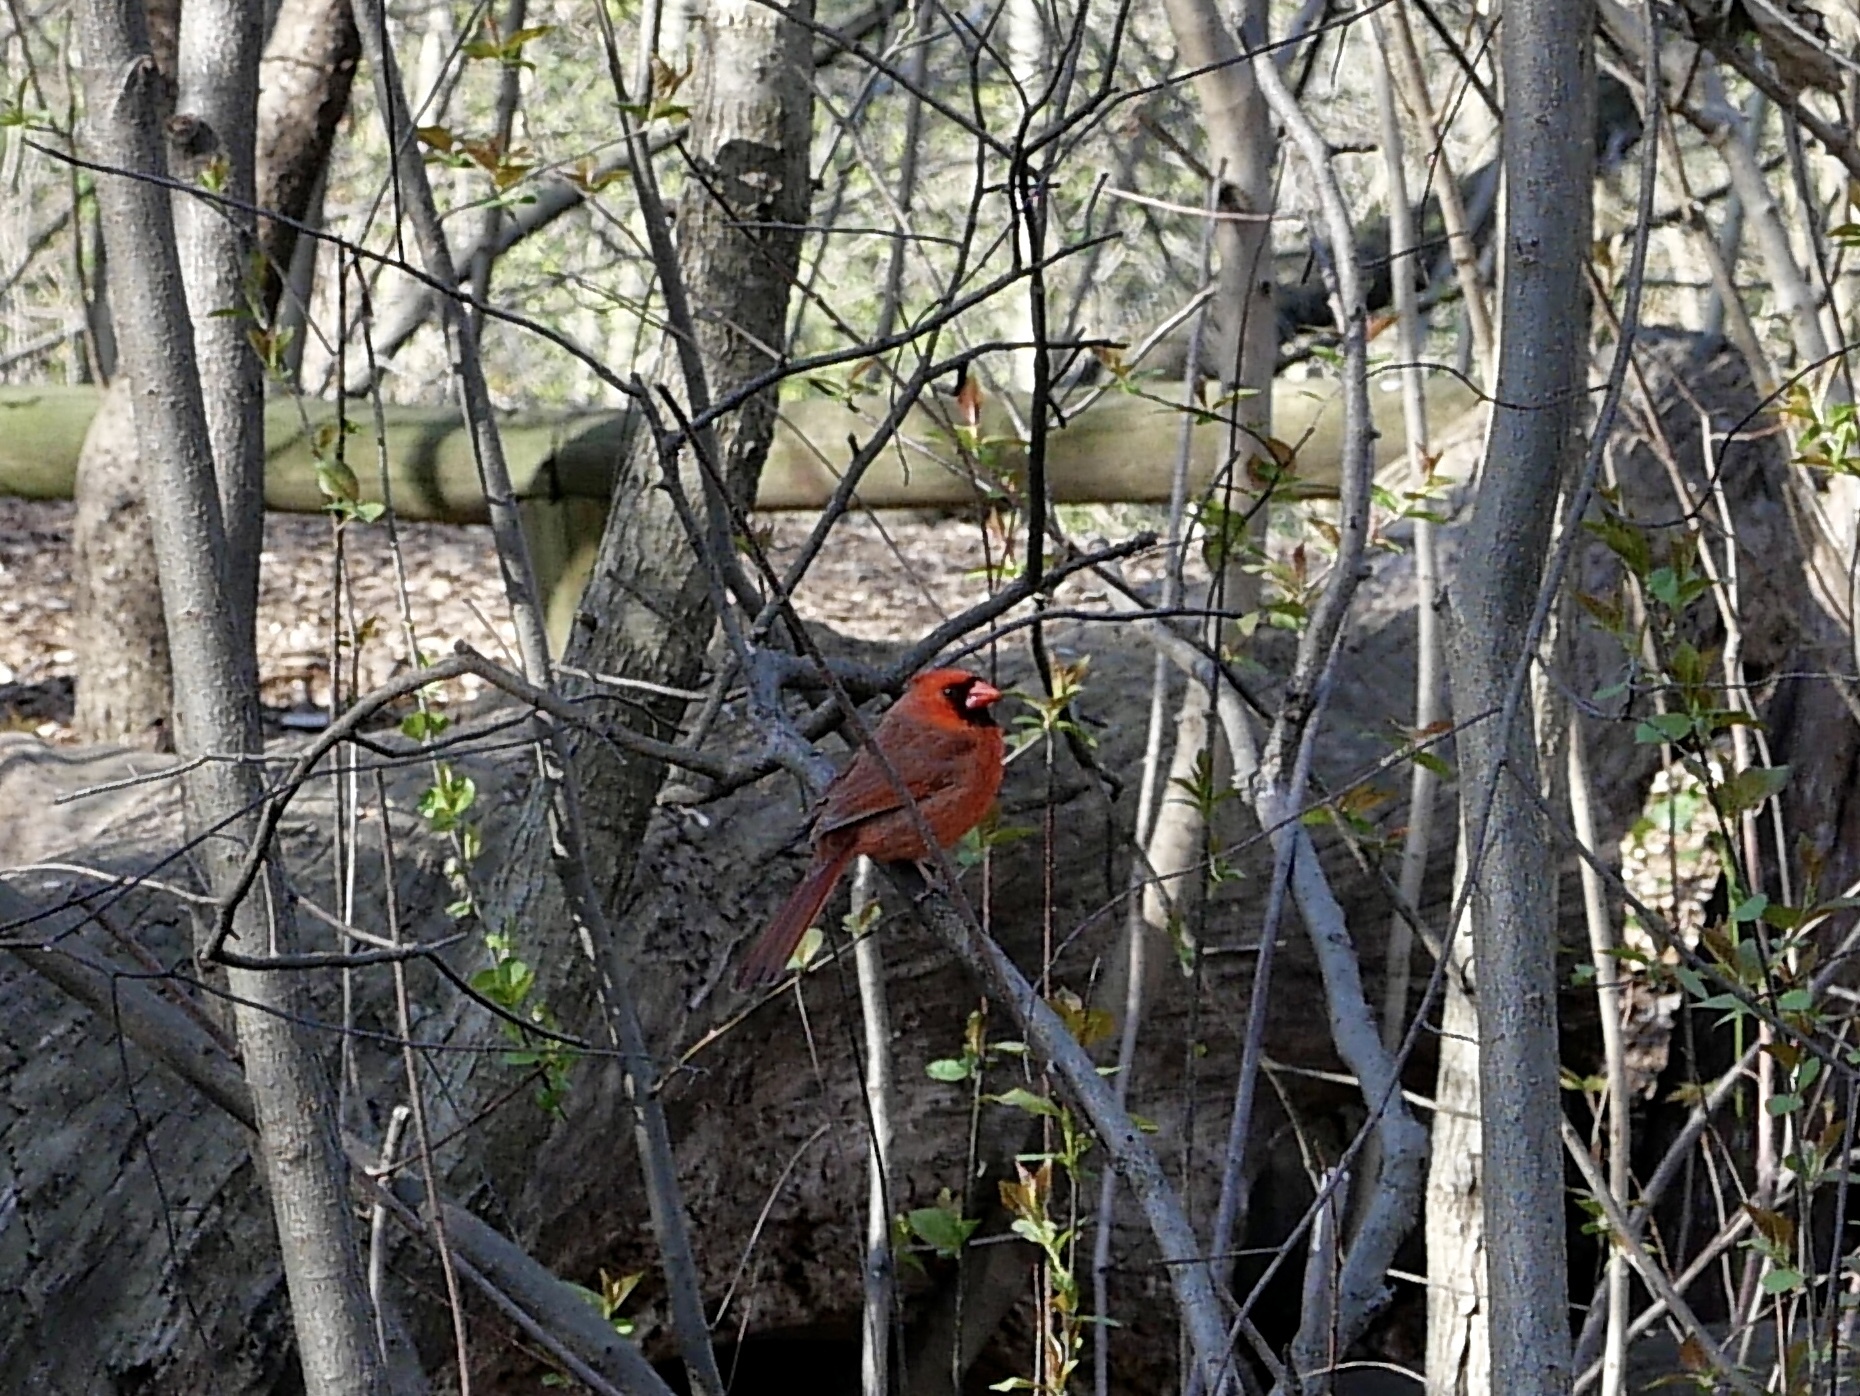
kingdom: Animalia
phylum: Chordata
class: Aves
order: Passeriformes
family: Cardinalidae
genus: Cardinalis
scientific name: Cardinalis cardinalis
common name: Northern cardinal
